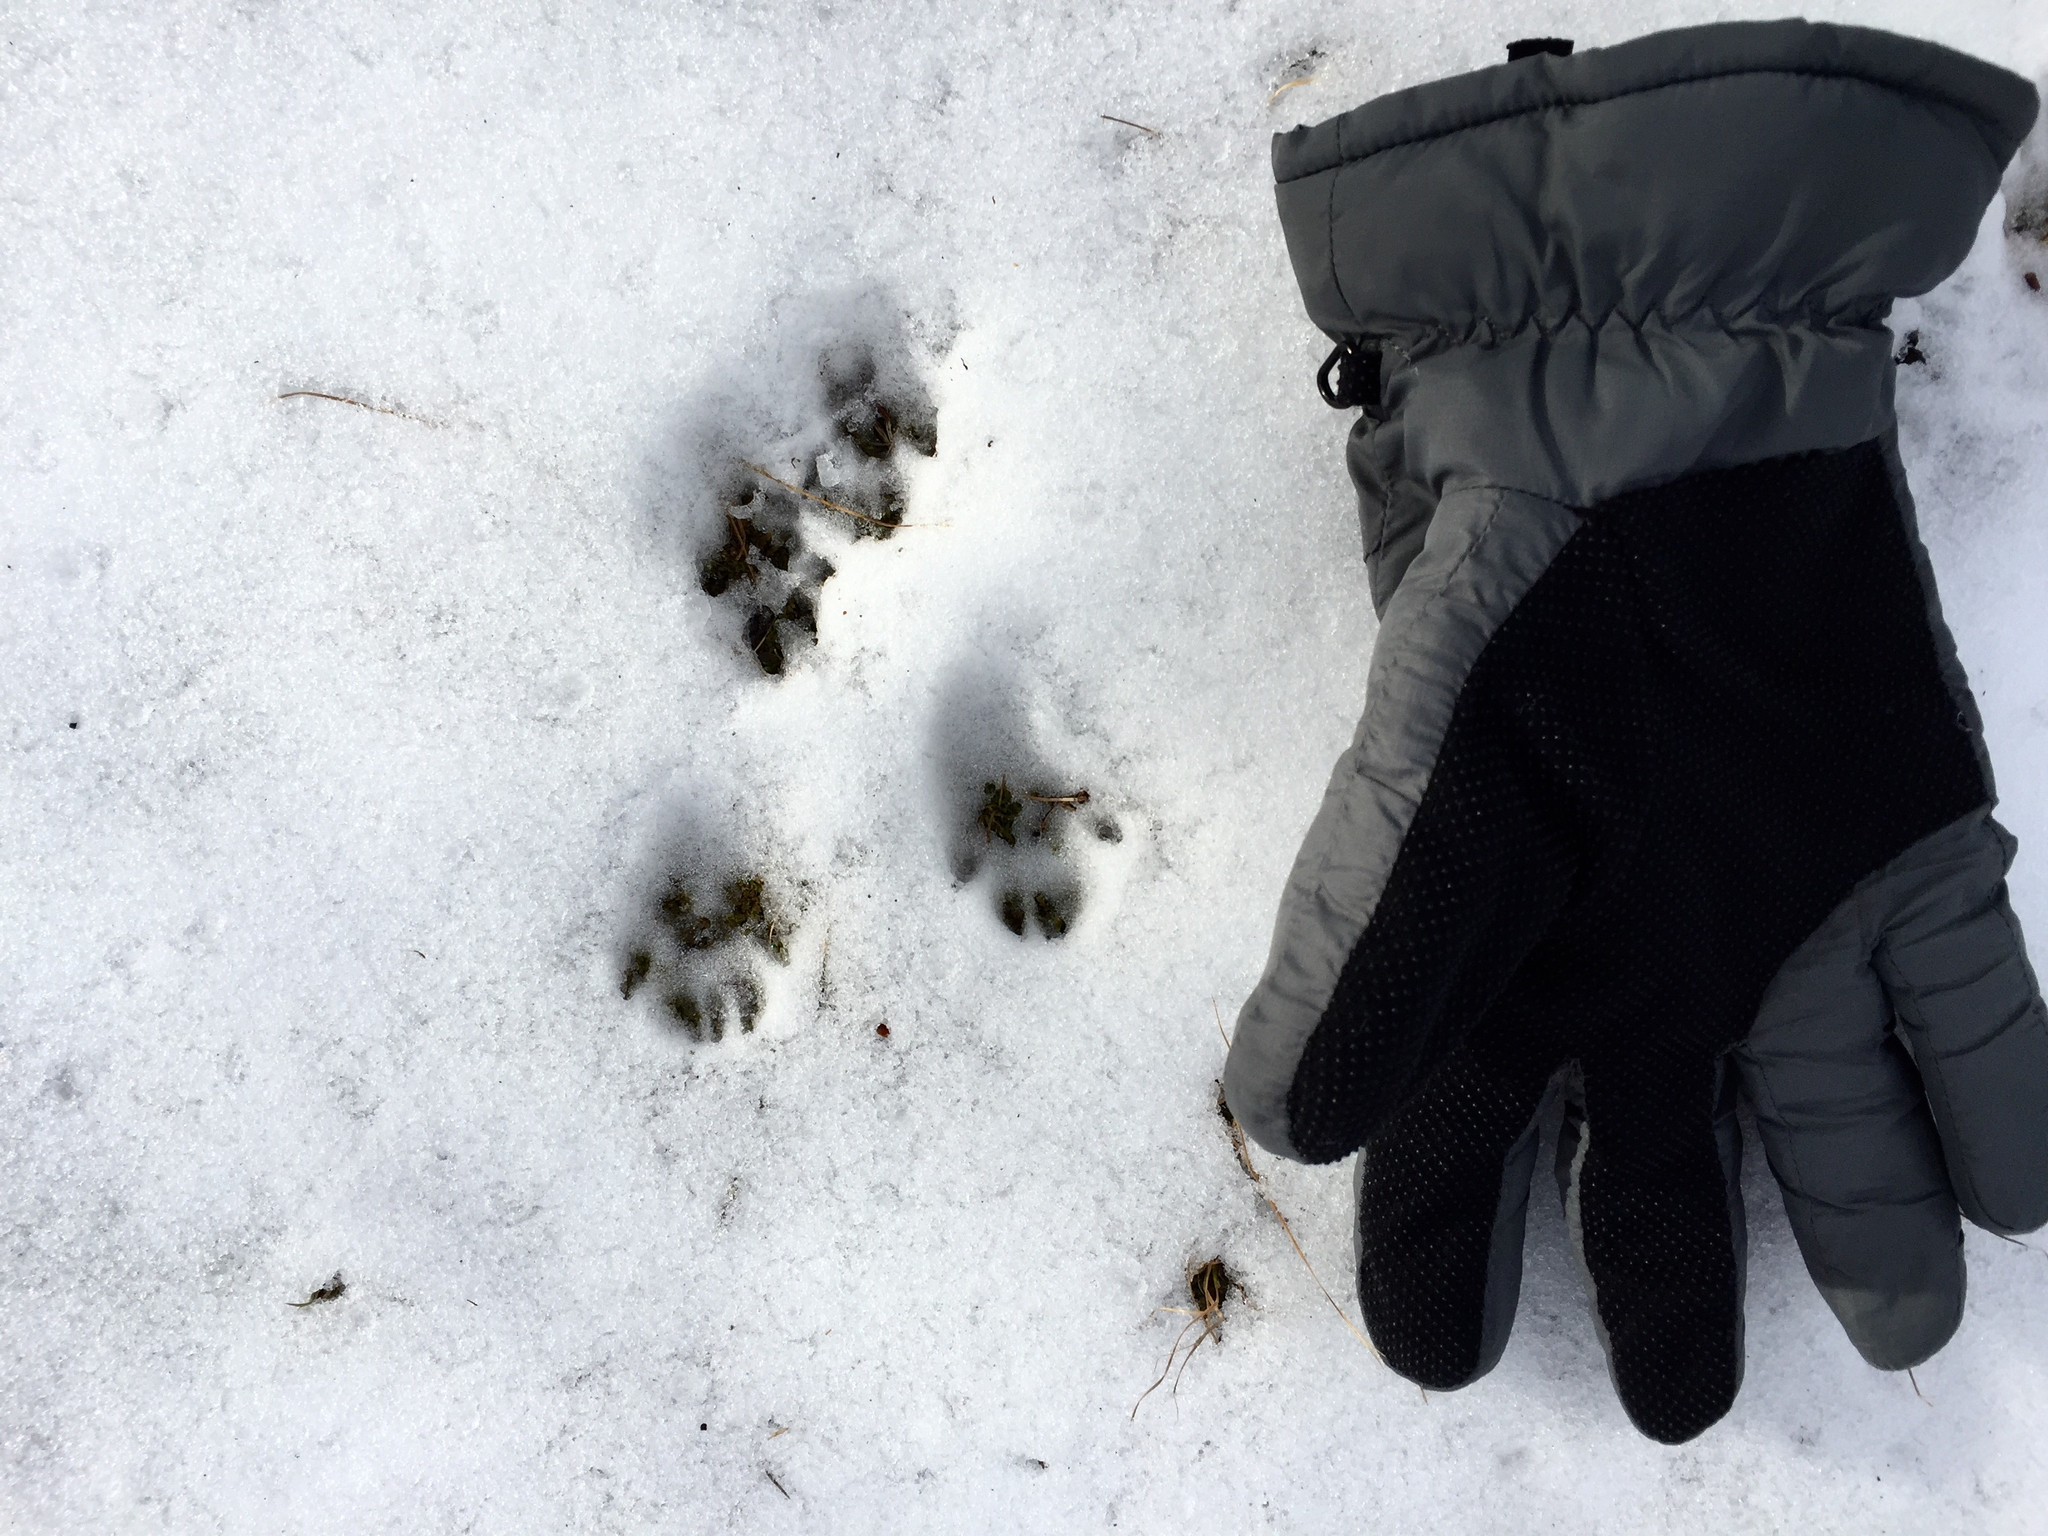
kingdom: Animalia
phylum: Chordata
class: Mammalia
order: Rodentia
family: Sciuridae
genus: Sciurus
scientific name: Sciurus carolinensis
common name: Eastern gray squirrel
